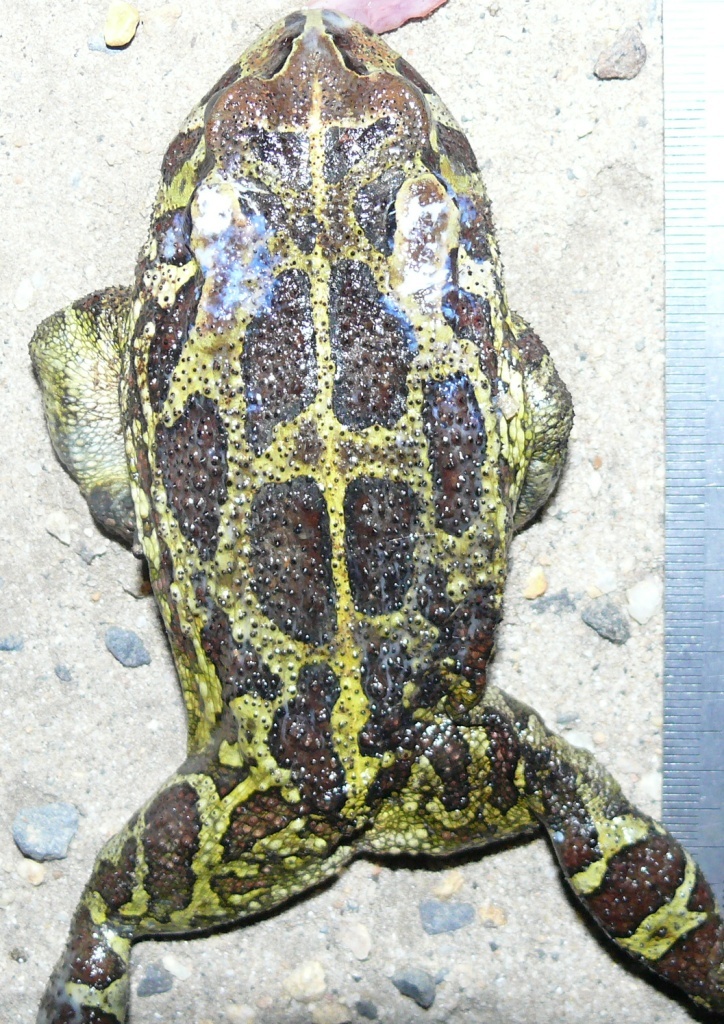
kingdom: Animalia
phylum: Chordata
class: Amphibia
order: Anura
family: Bufonidae
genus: Sclerophrys
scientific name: Sclerophrys pantherina
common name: Panther toad
